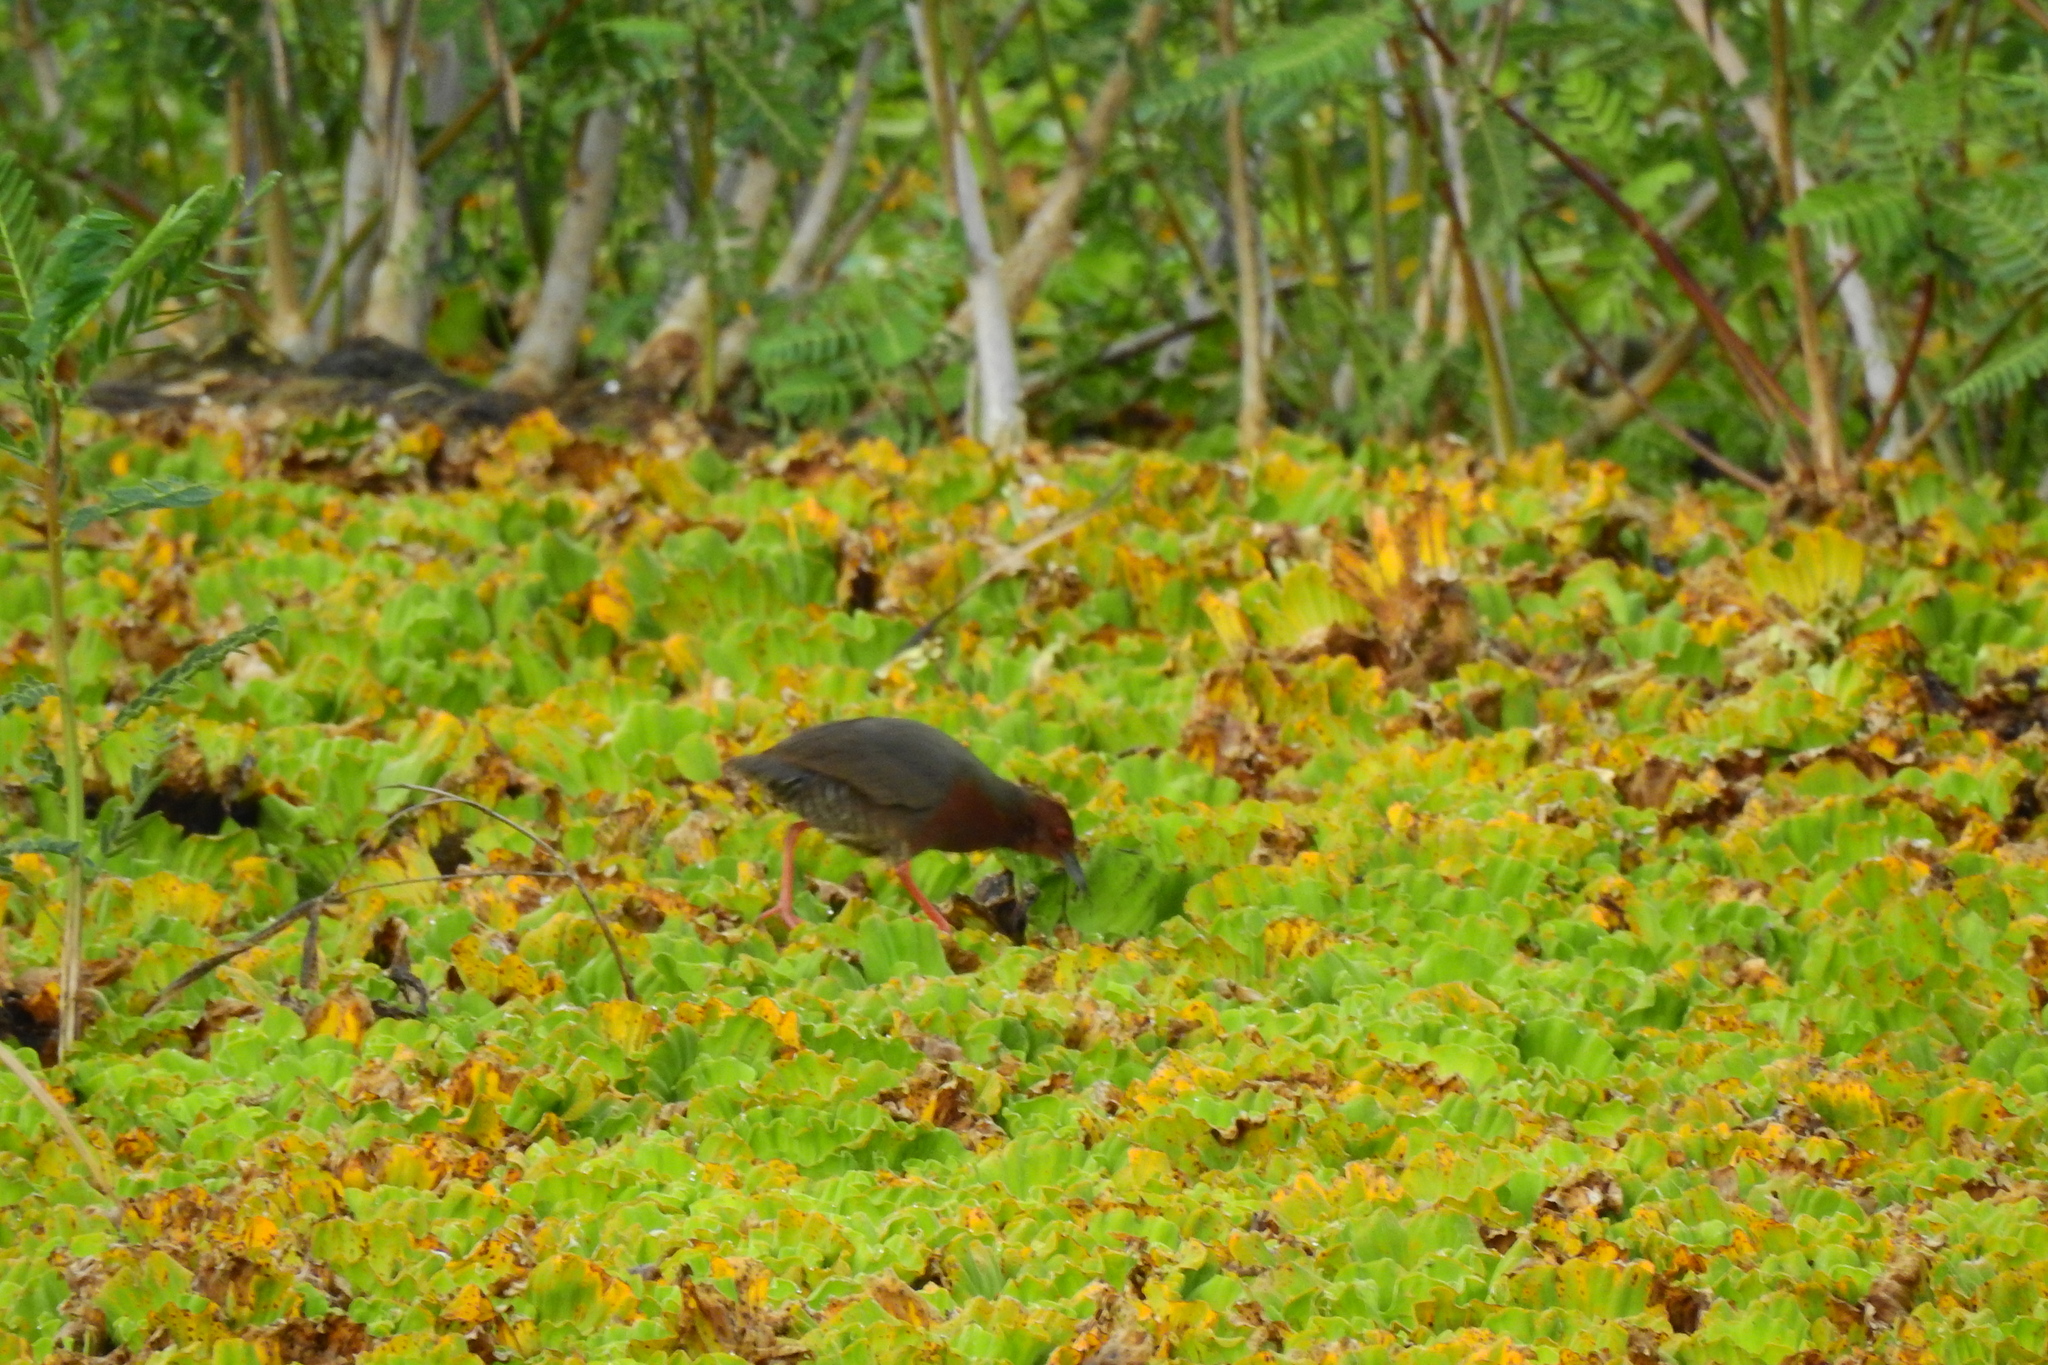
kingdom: Animalia
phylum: Chordata
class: Aves
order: Gruiformes
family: Rallidae
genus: Porzana
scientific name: Porzana fusca
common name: Ruddy-breasted crake
